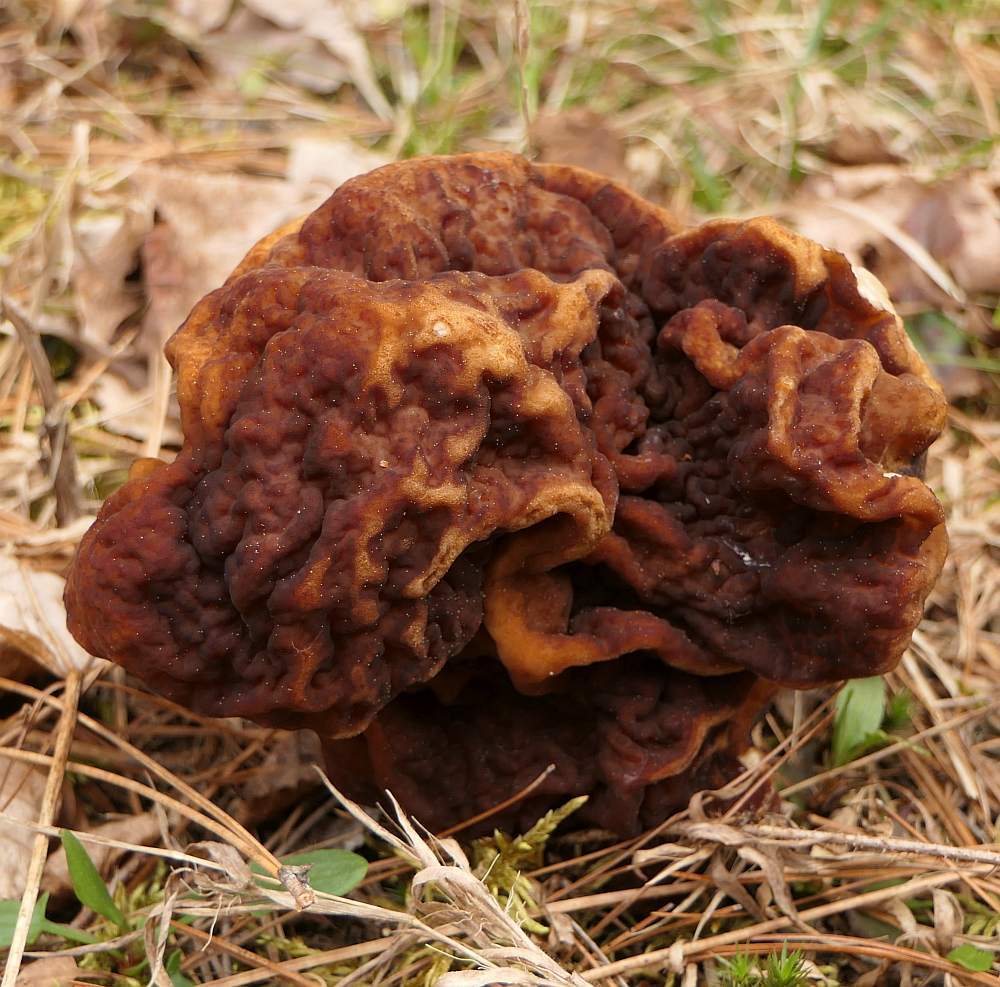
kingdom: Fungi
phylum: Ascomycota
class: Pezizomycetes
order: Pezizales
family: Discinaceae
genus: Gyromitra
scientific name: Gyromitra esculenta
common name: False morel
